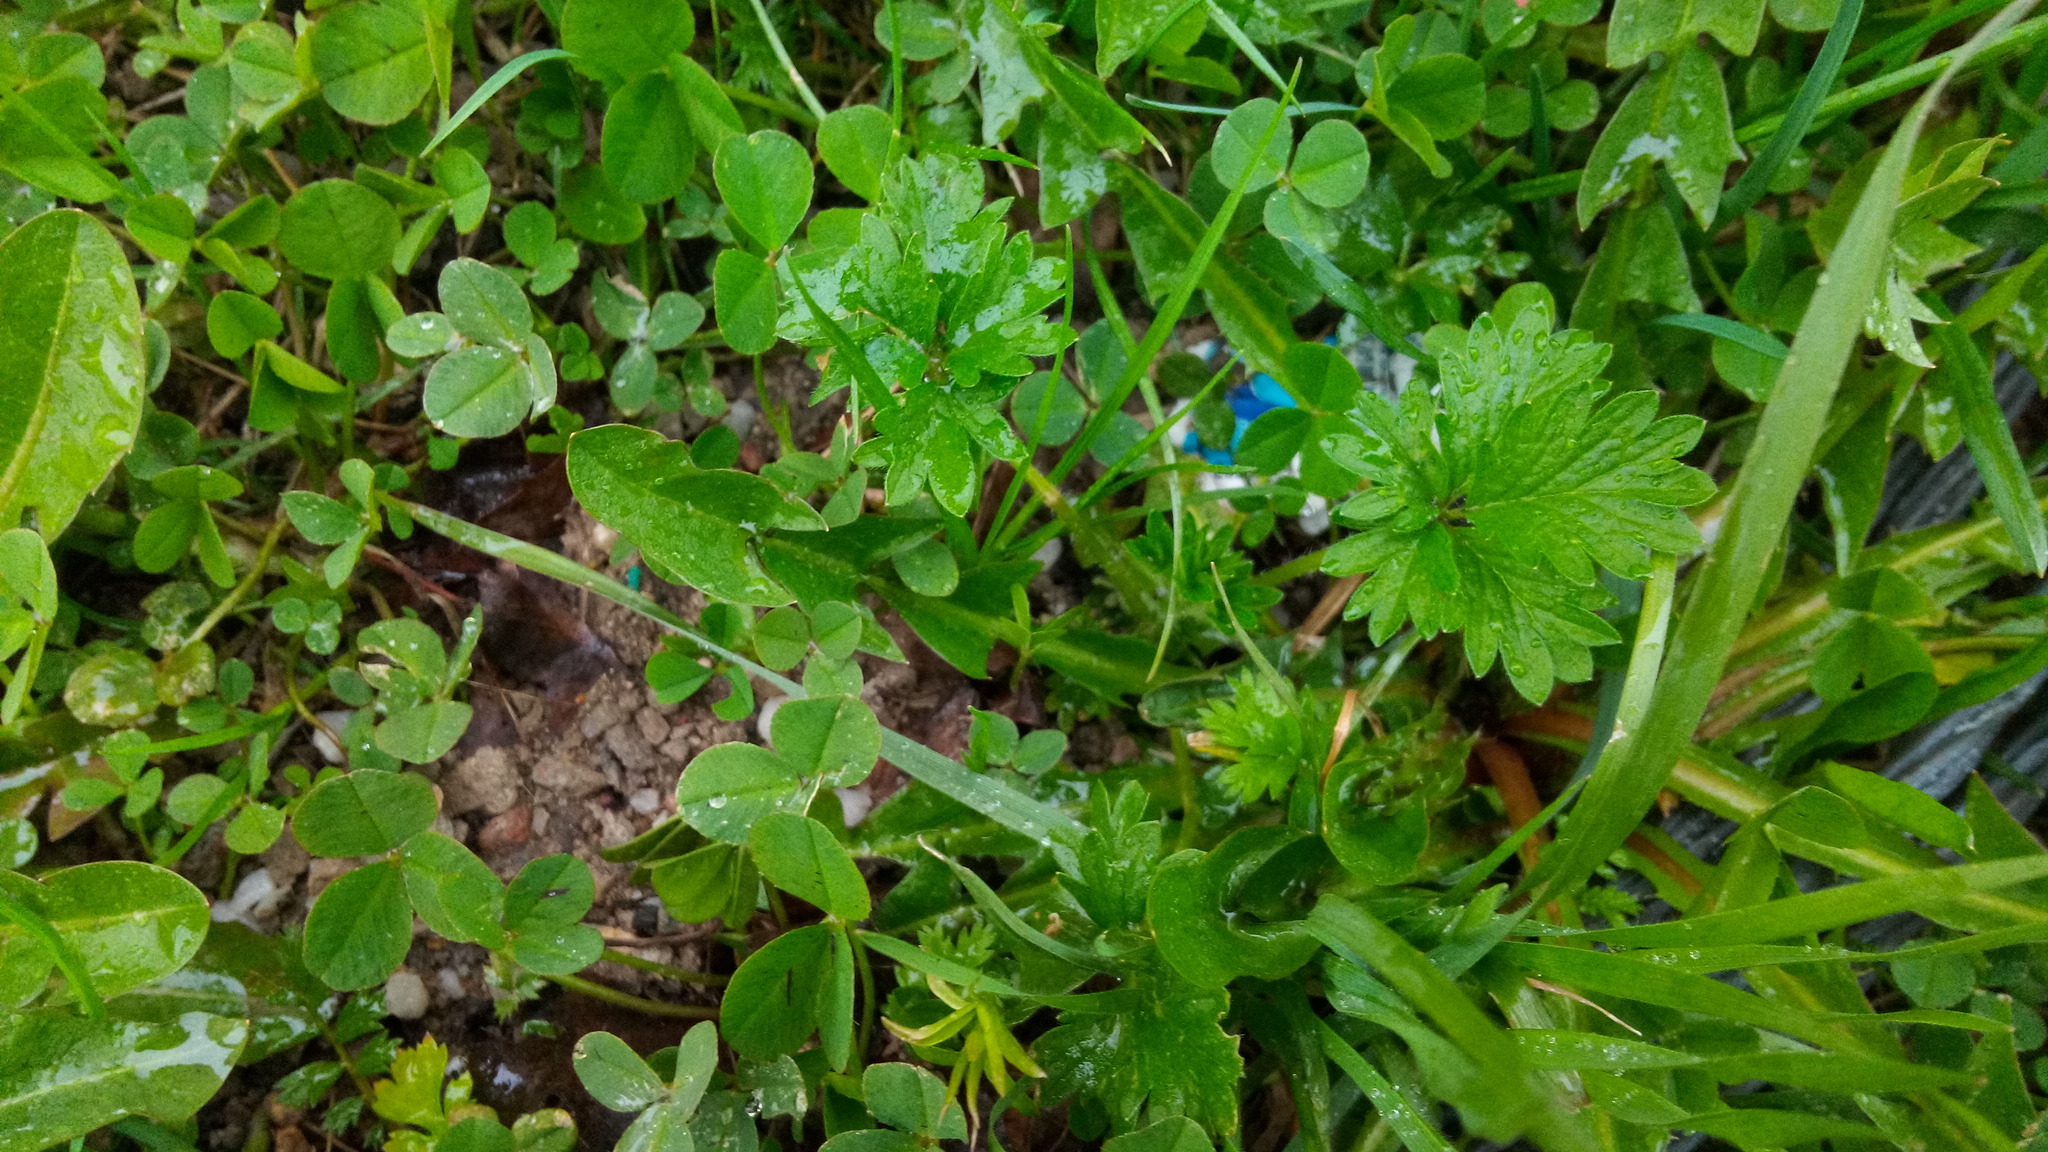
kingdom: Plantae
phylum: Tracheophyta
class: Magnoliopsida
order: Rosales
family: Rosaceae
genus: Potentilla
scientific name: Potentilla intermedia
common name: Downy cinquefoil
